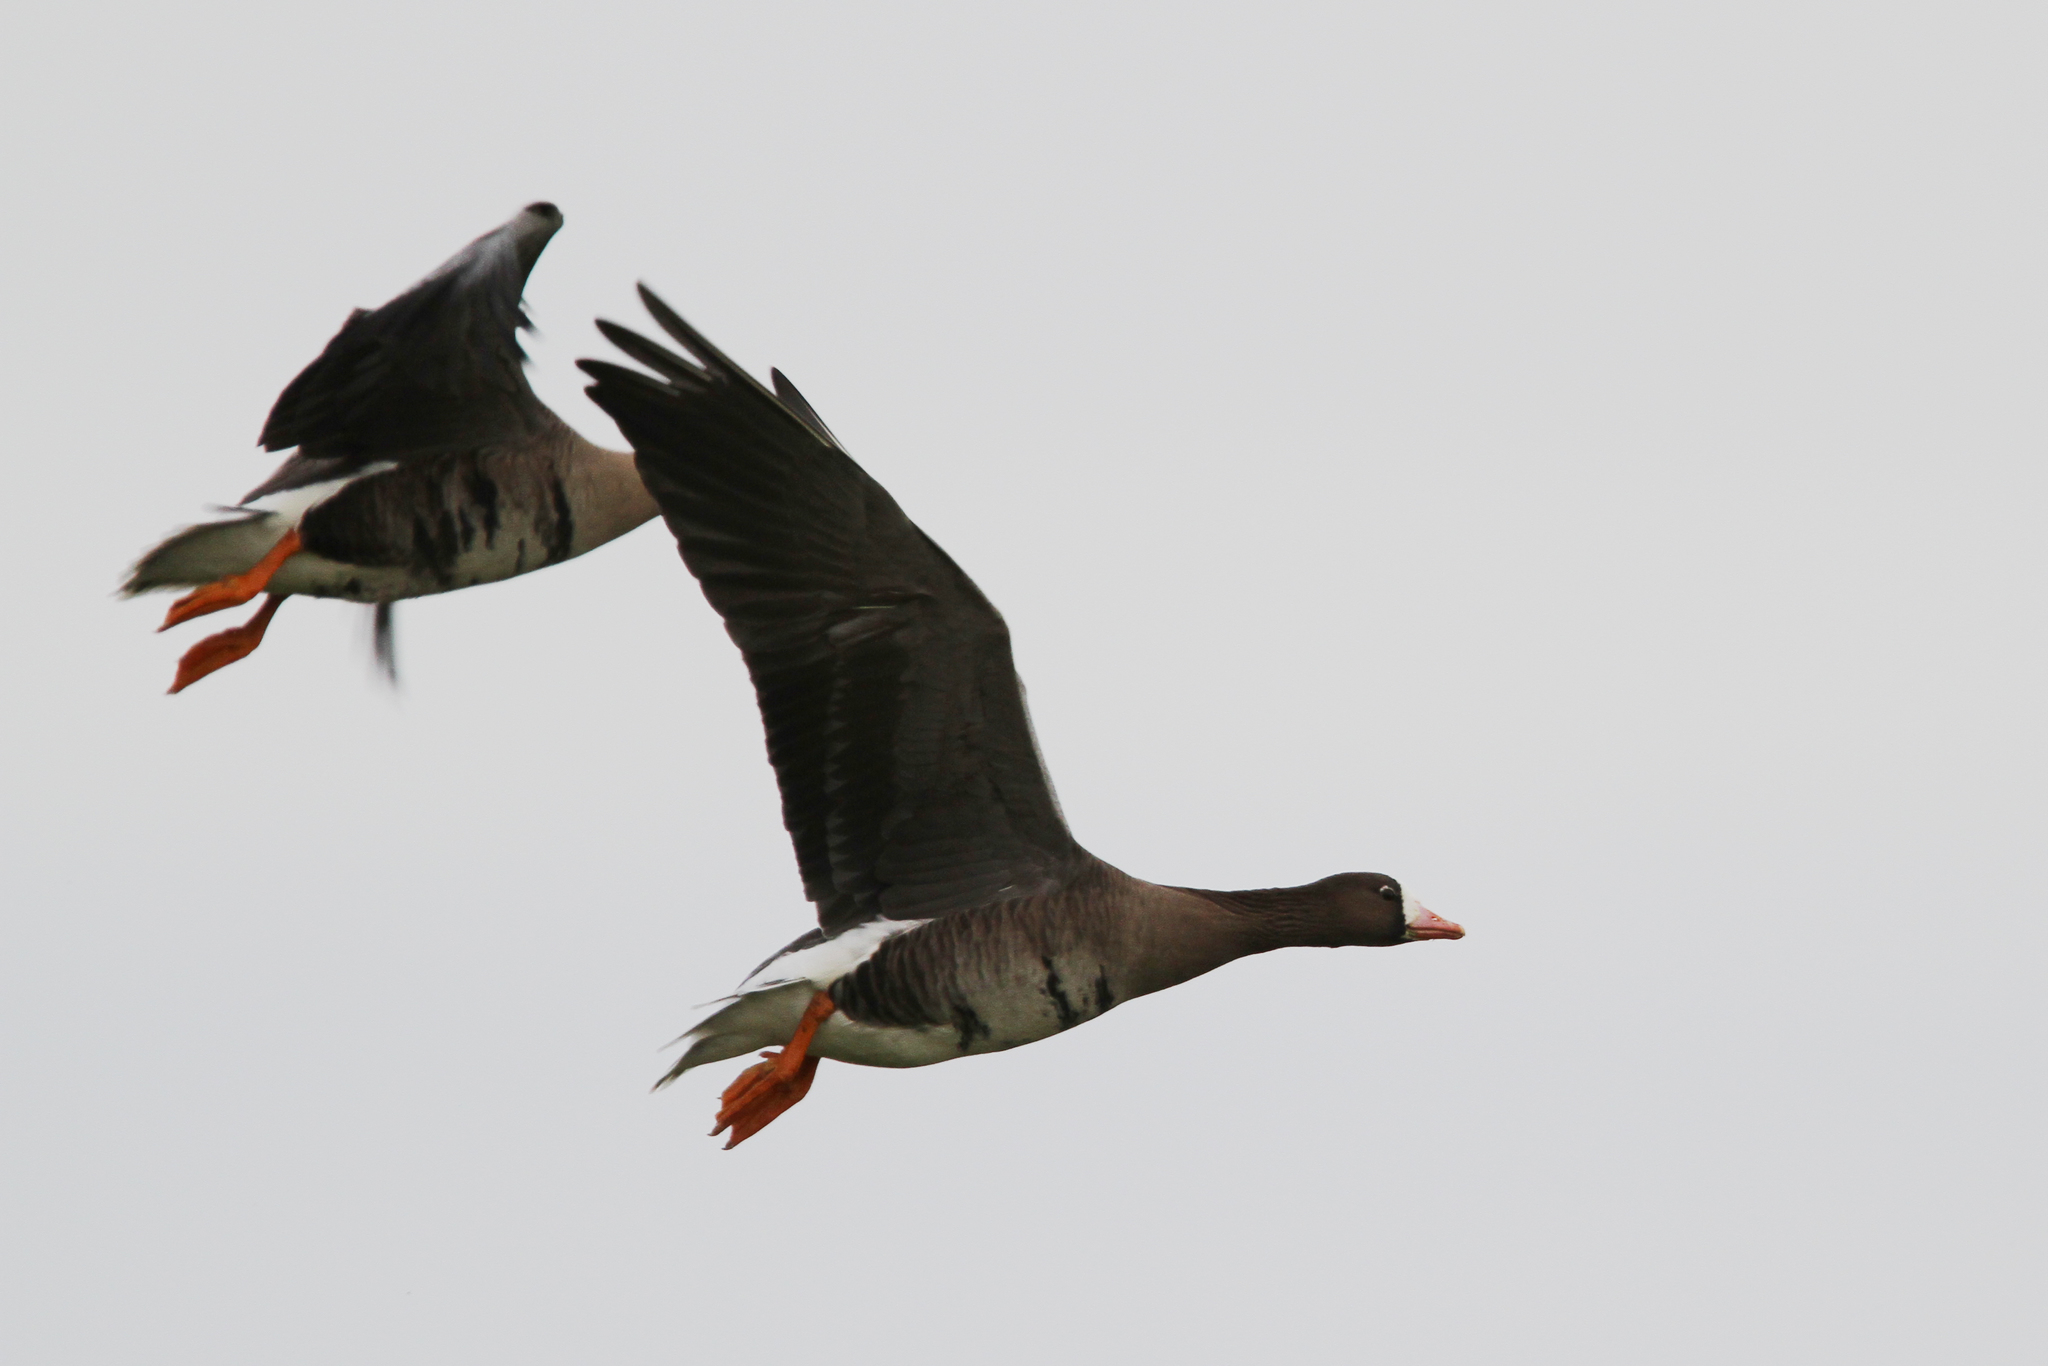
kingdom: Animalia
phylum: Chordata
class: Aves
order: Anseriformes
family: Anatidae
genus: Anser
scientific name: Anser albifrons
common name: Greater white-fronted goose
